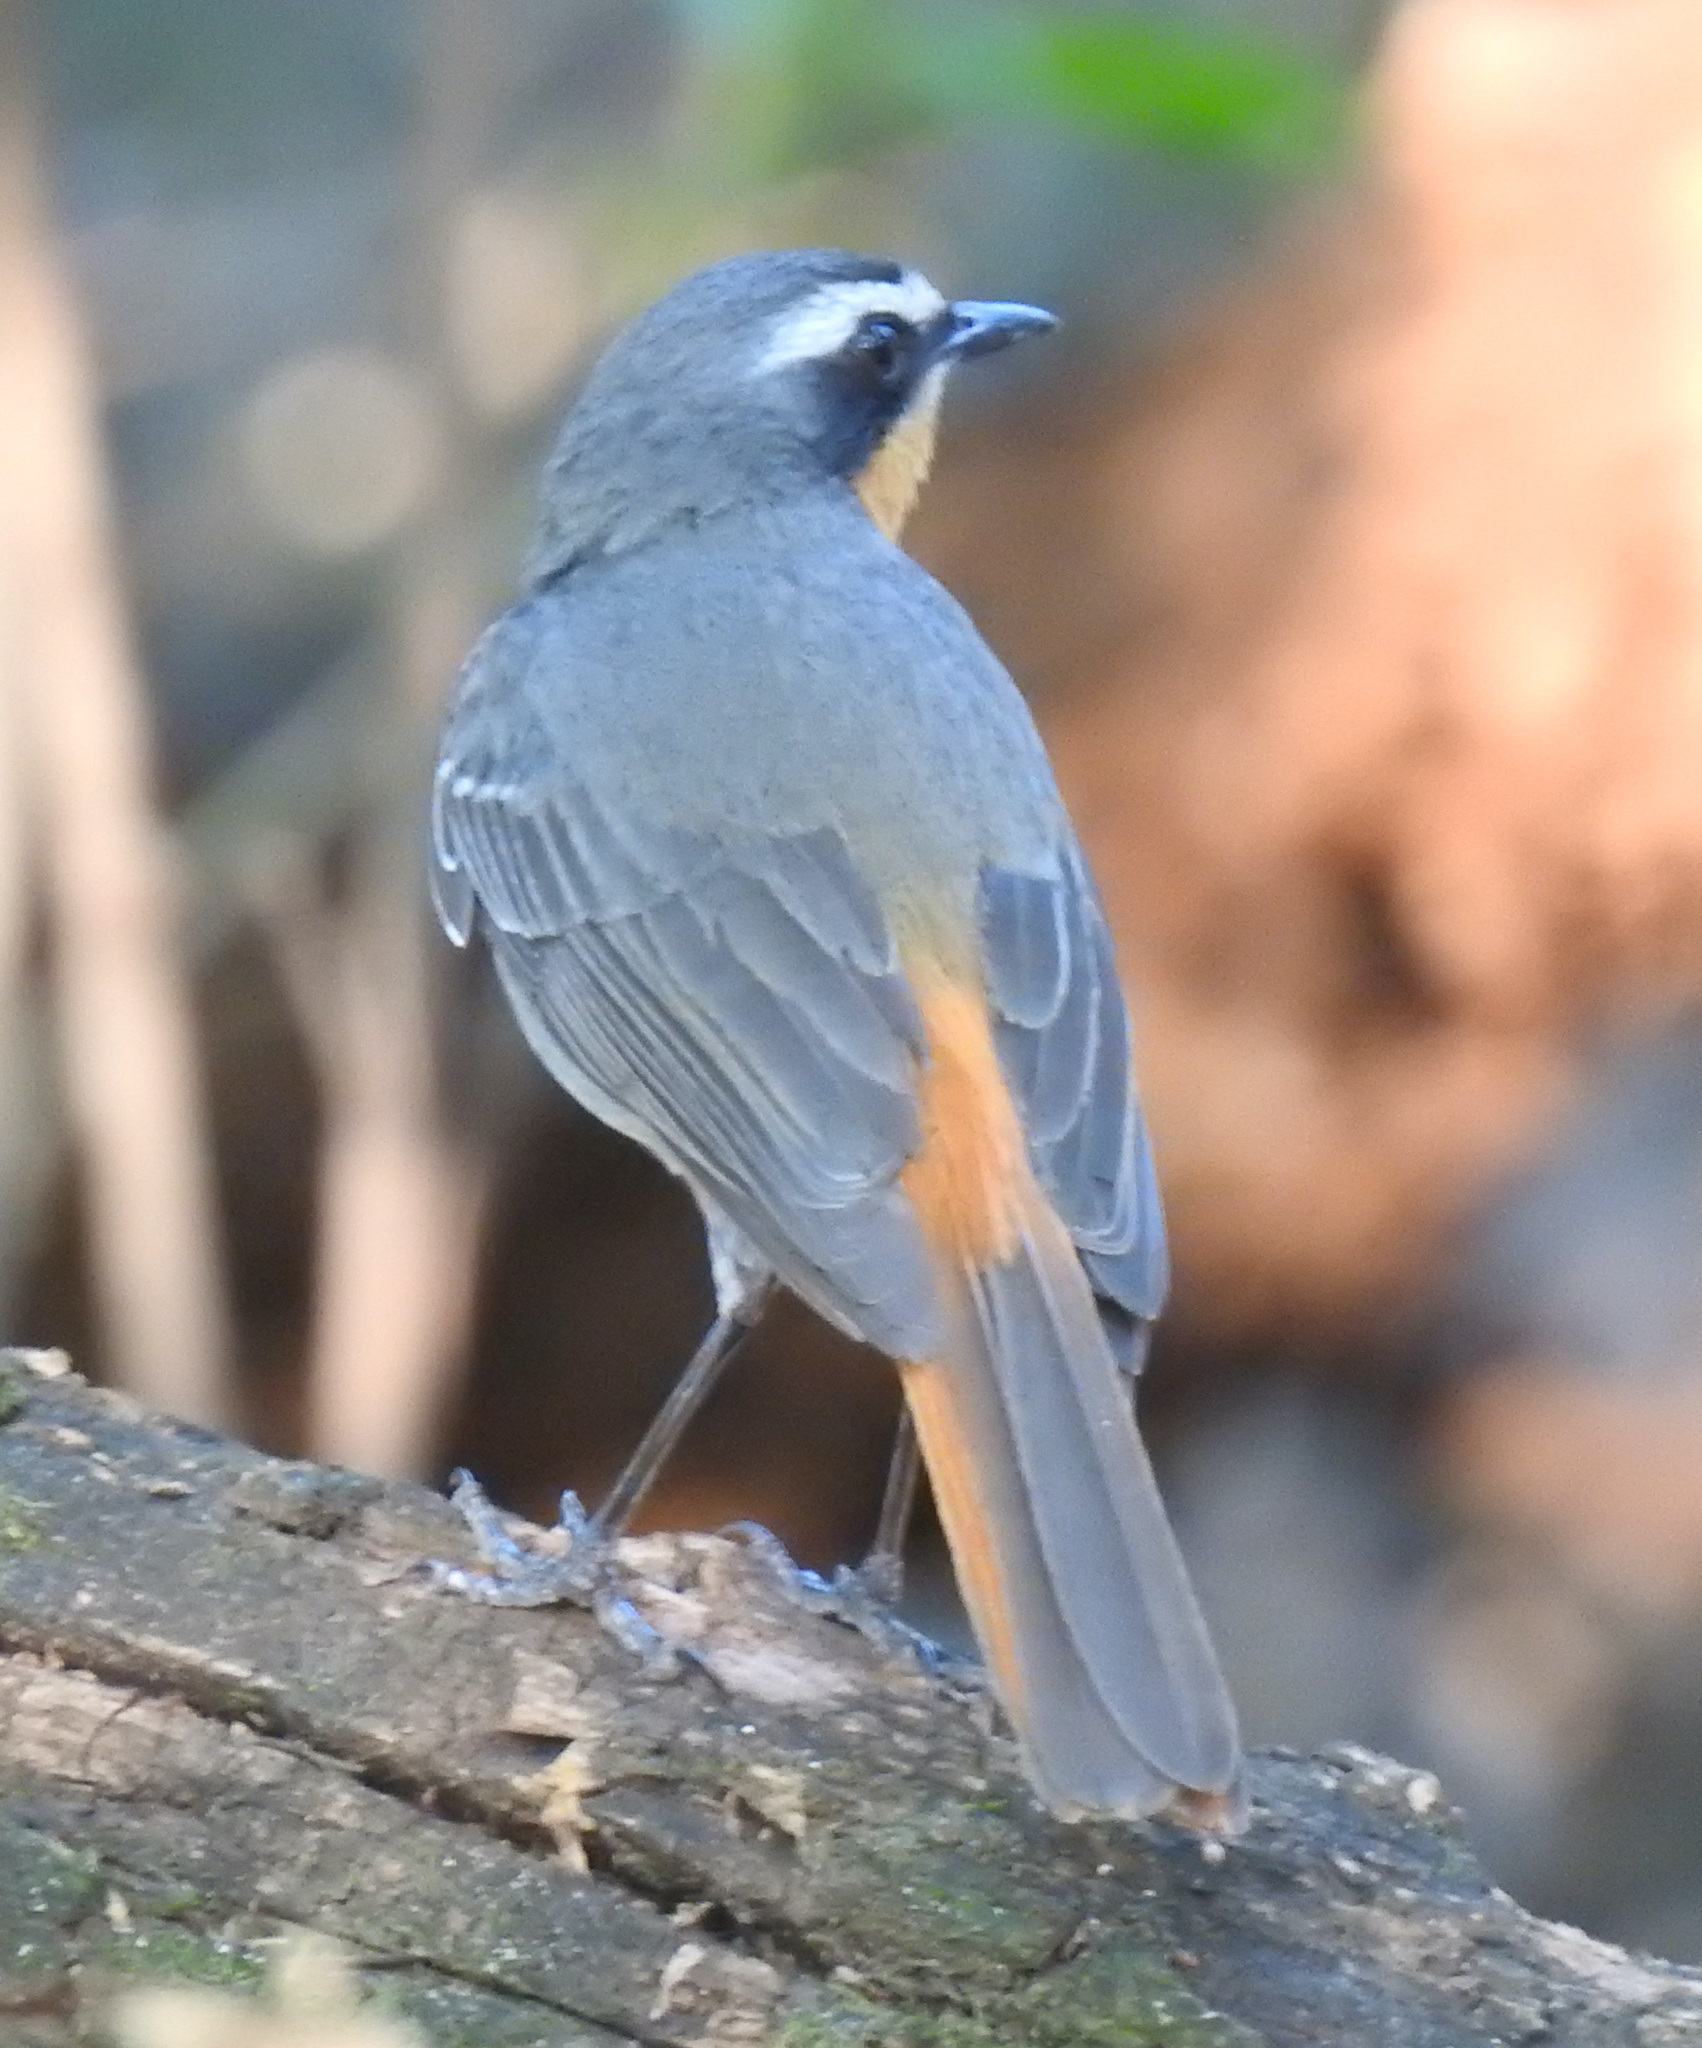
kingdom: Animalia
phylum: Chordata
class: Aves
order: Passeriformes
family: Muscicapidae
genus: Cossypha
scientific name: Cossypha caffra
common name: Cape robin-chat
